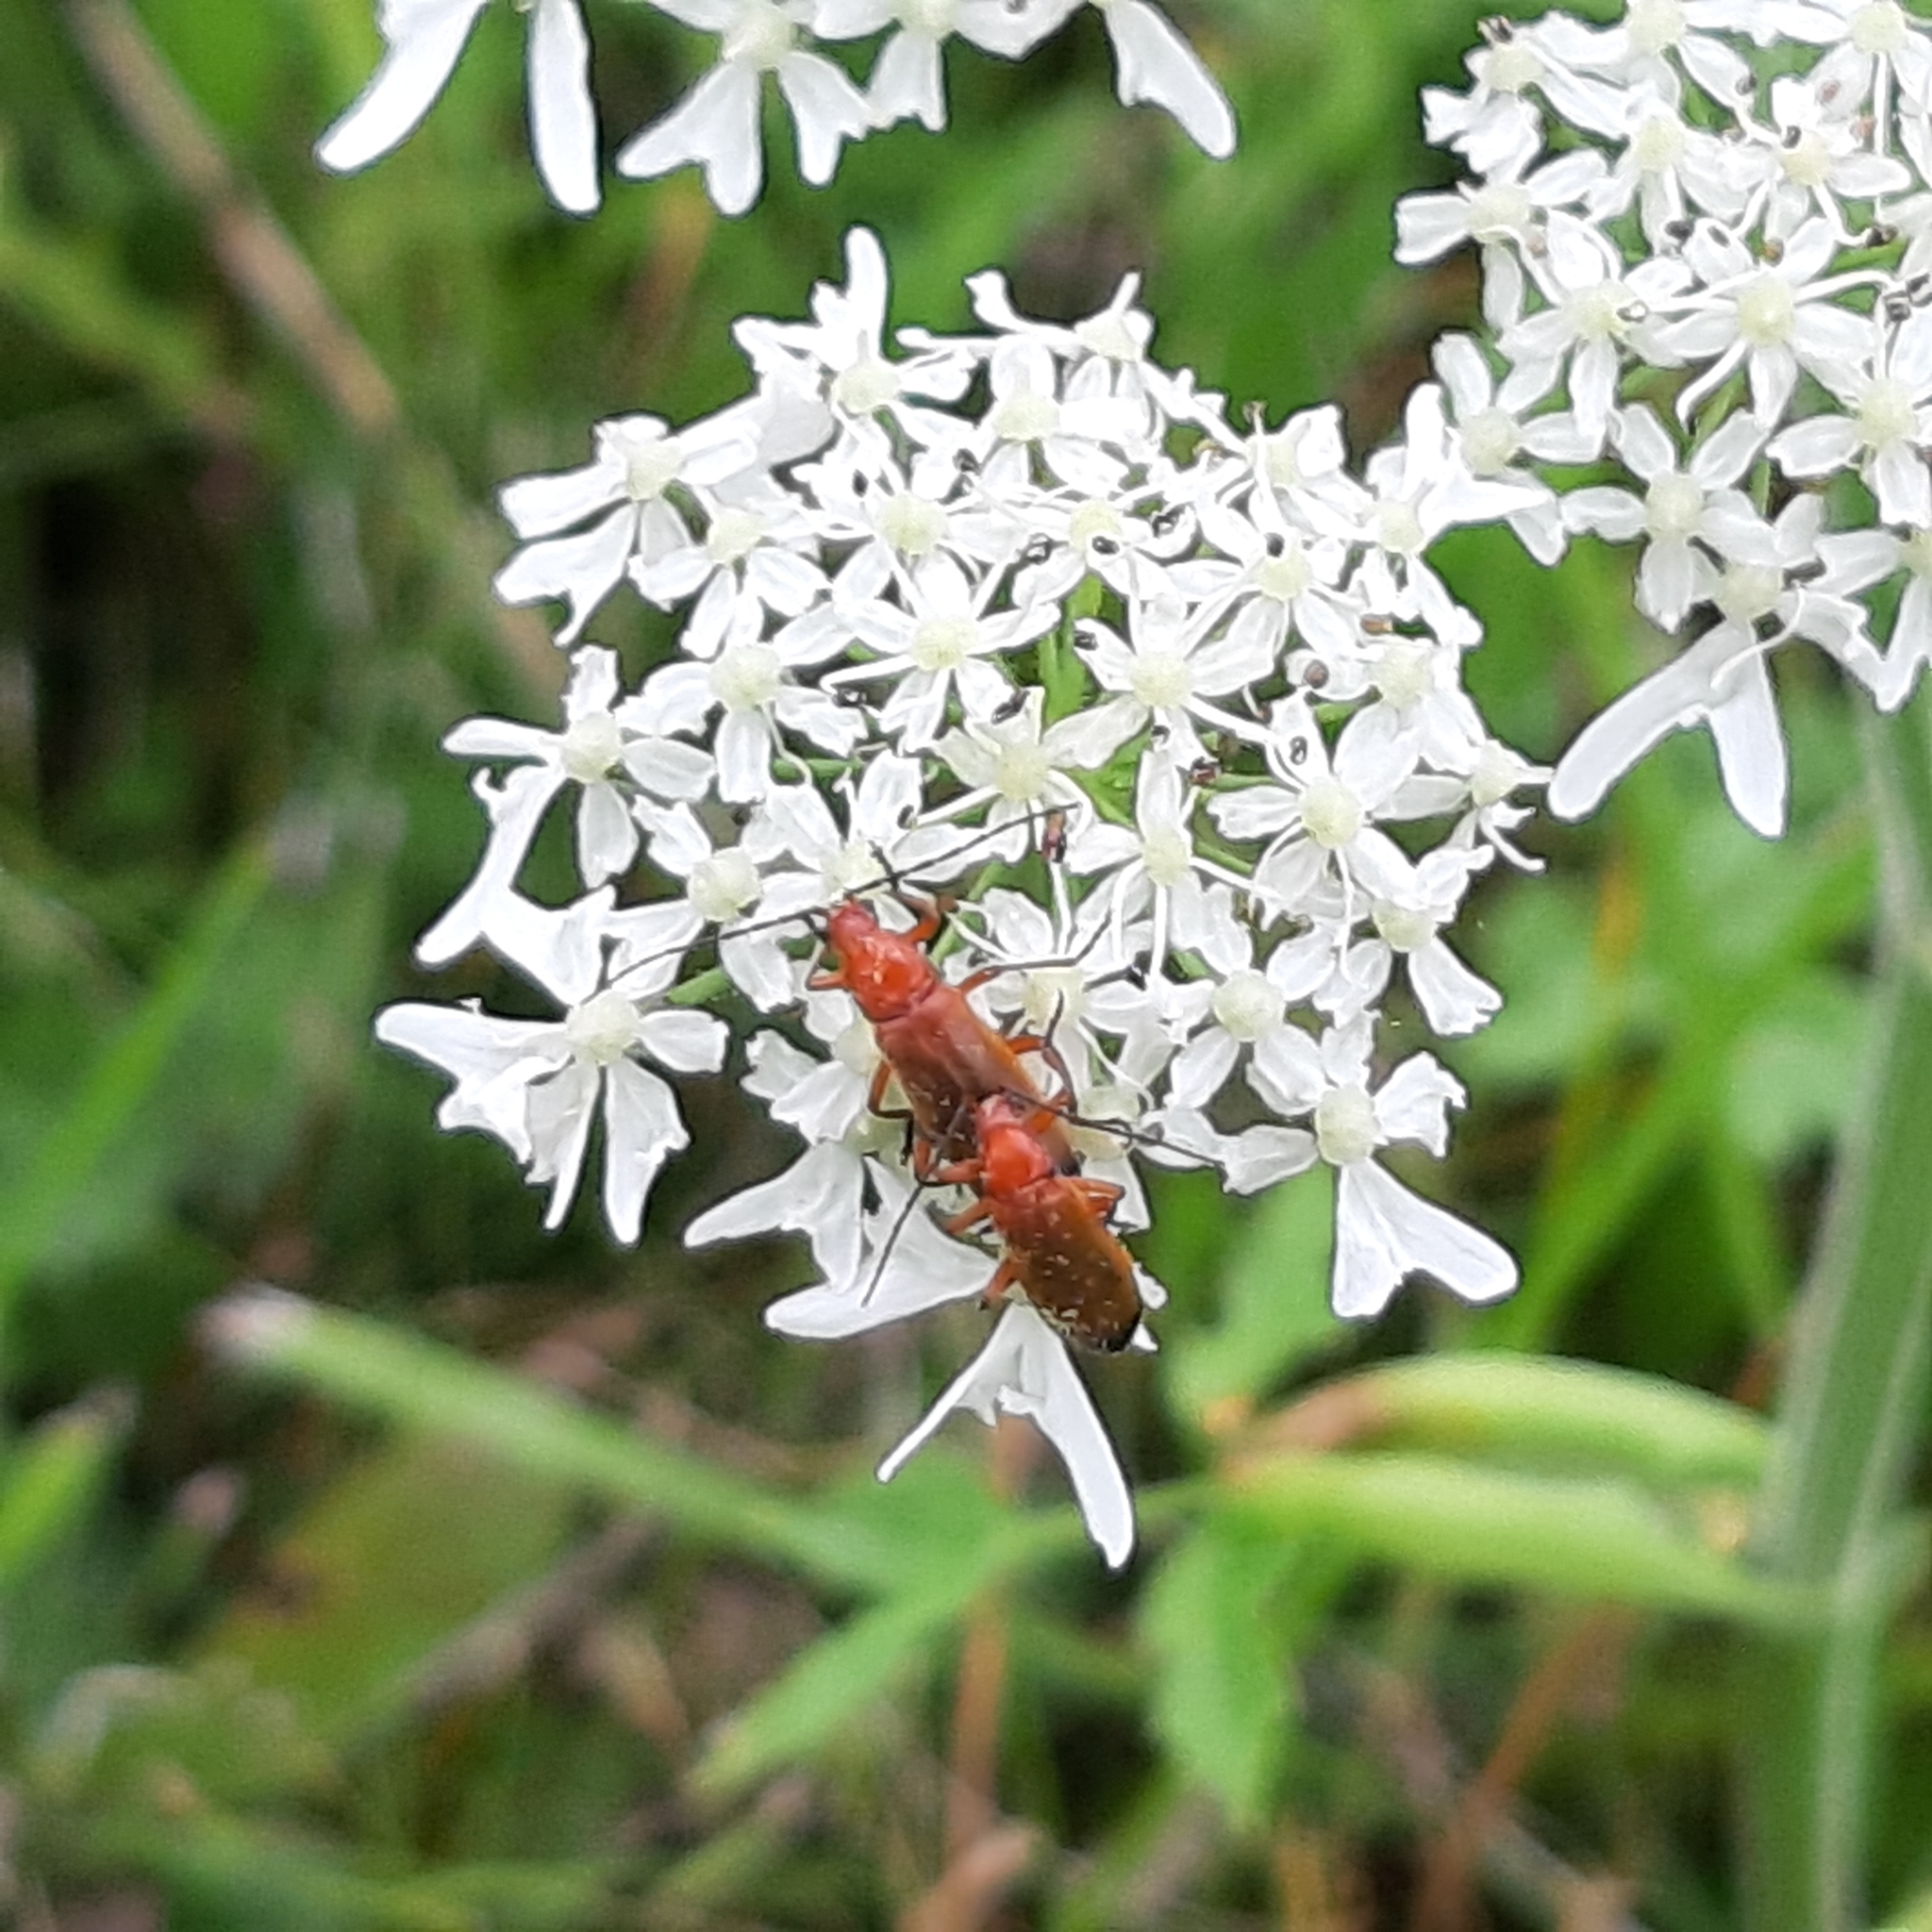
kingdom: Animalia
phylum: Arthropoda
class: Insecta
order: Coleoptera
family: Cantharidae
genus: Rhagonycha
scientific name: Rhagonycha fulva
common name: Common red soldier beetle
